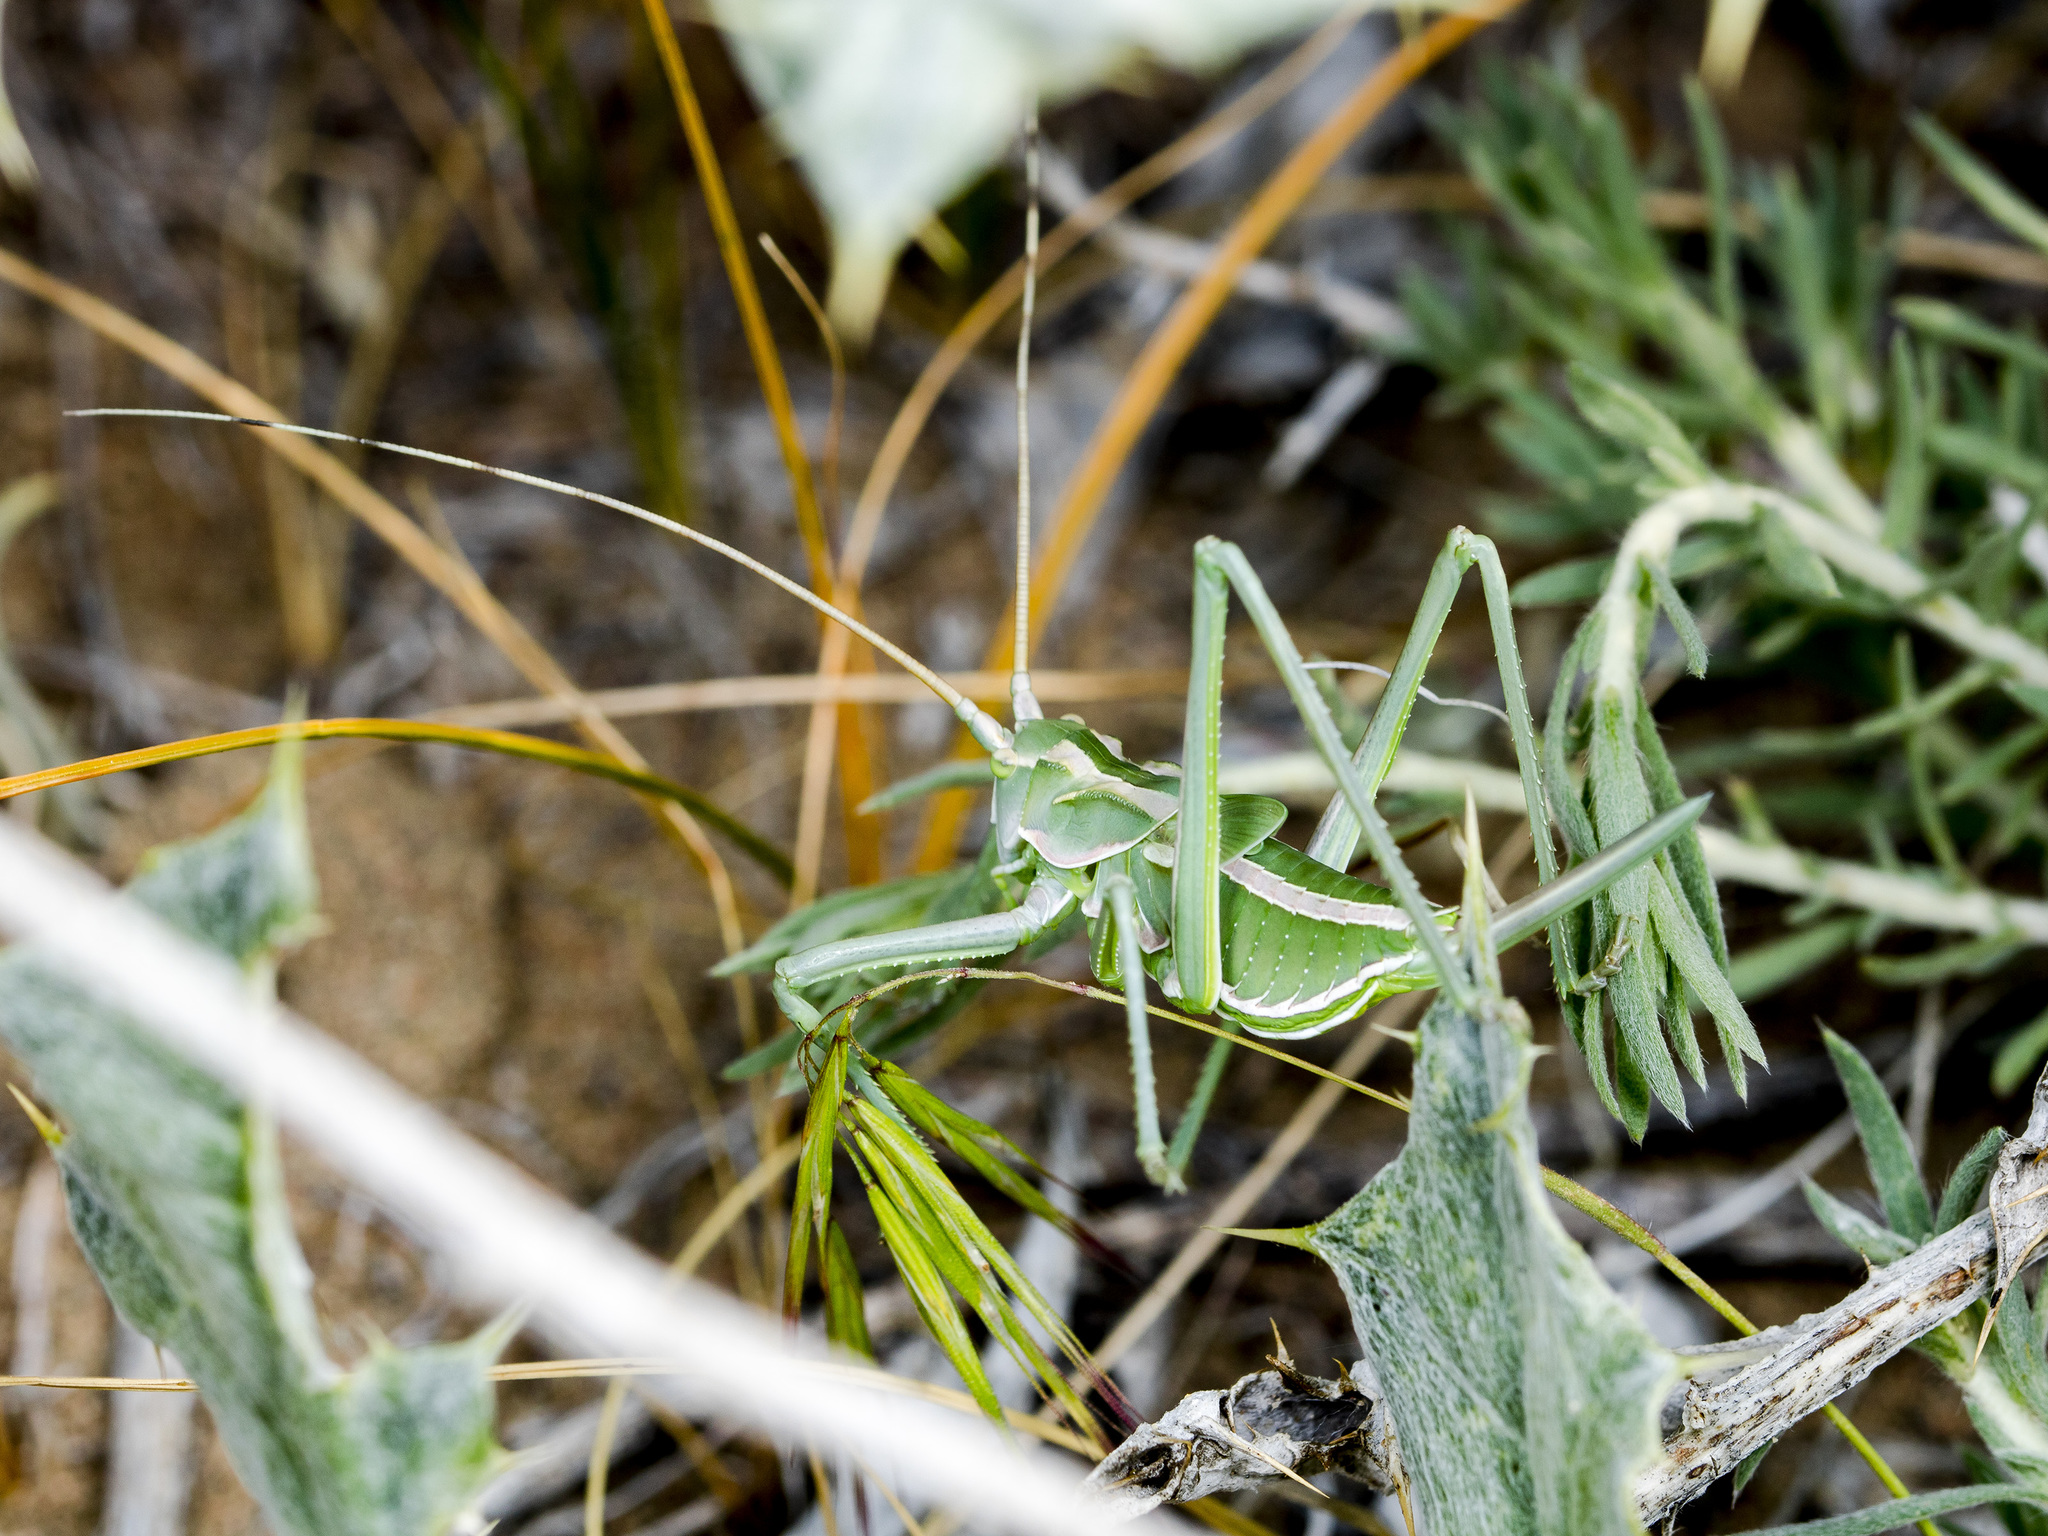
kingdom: Animalia
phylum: Arthropoda
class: Insecta
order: Orthoptera
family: Tettigoniidae
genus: Glyphonotus
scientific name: Glyphonotus thoracicus
